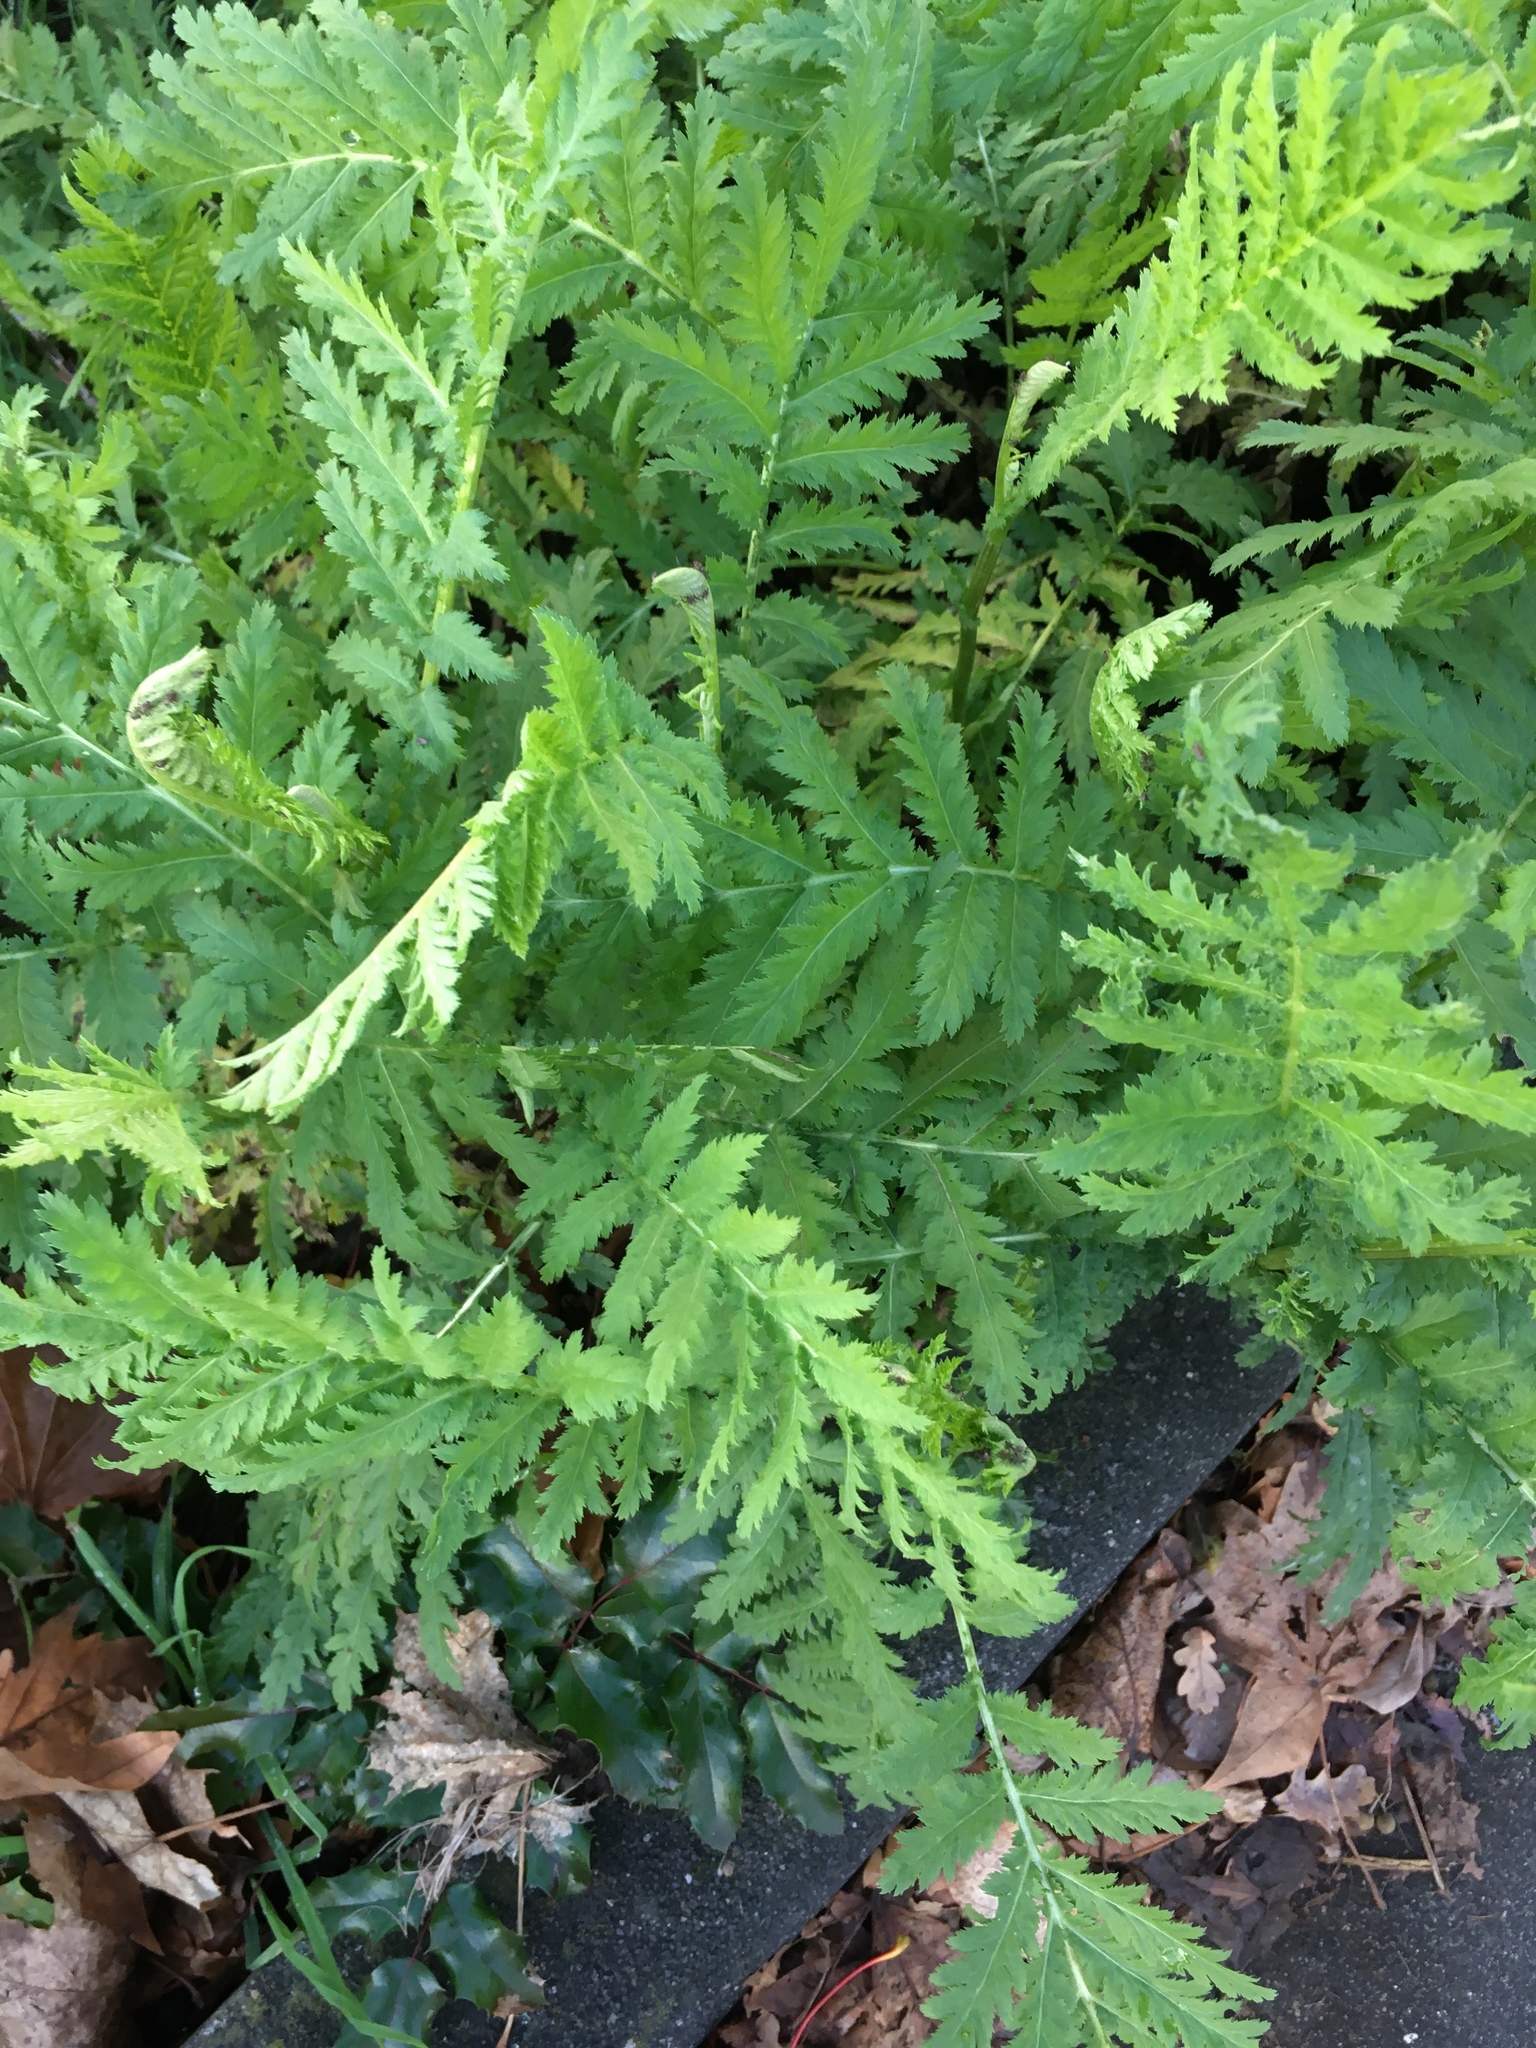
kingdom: Plantae
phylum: Tracheophyta
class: Magnoliopsida
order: Asterales
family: Asteraceae
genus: Tanacetum
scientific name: Tanacetum vulgare
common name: Common tansy
